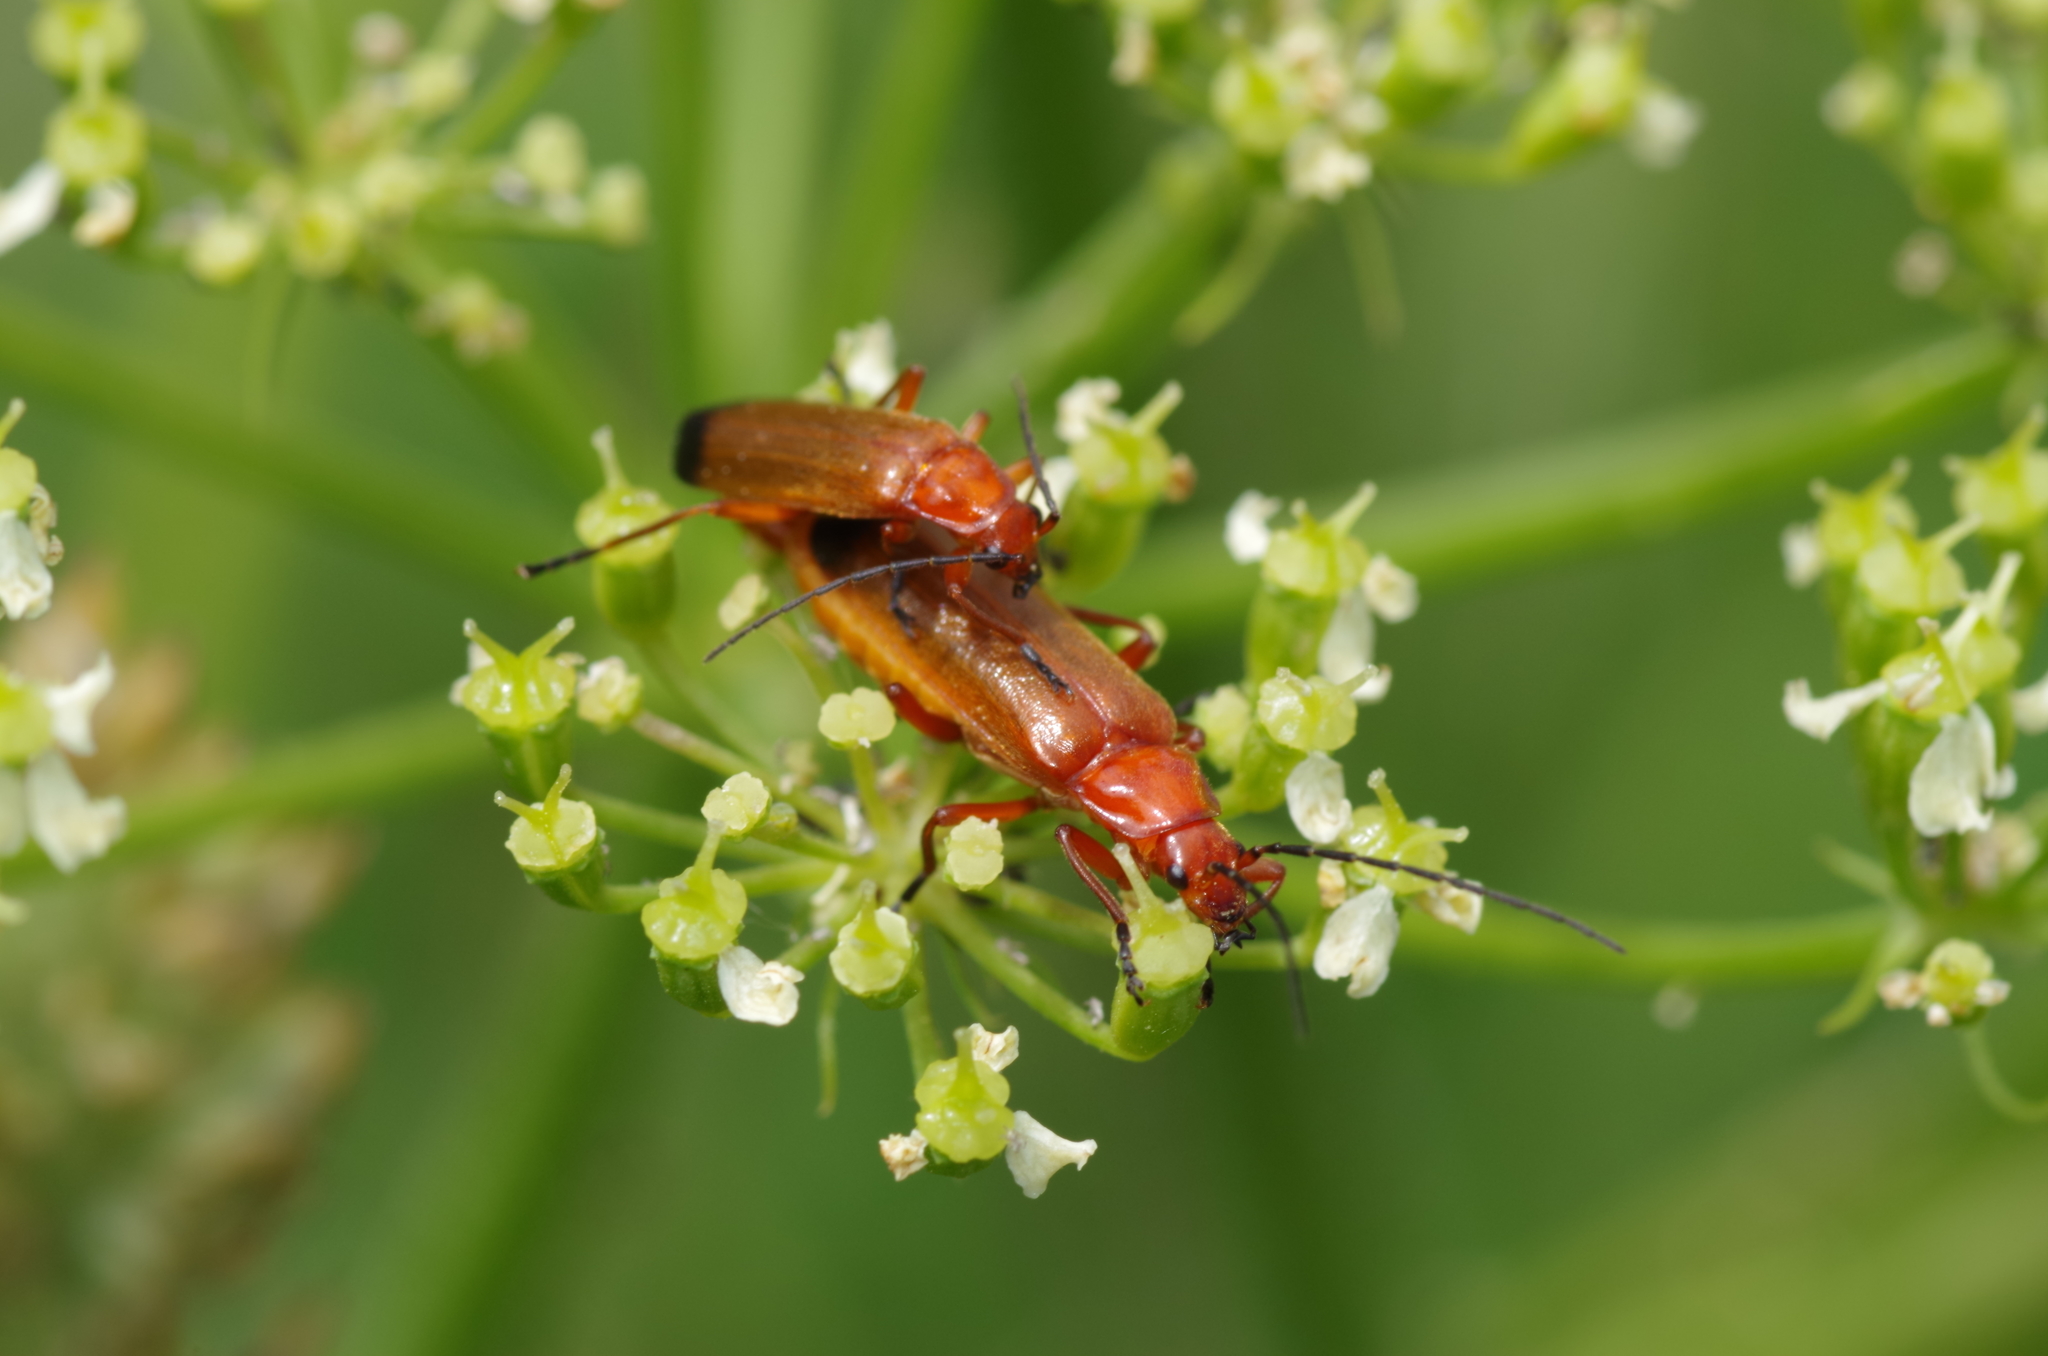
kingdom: Animalia
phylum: Arthropoda
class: Insecta
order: Coleoptera
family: Cantharidae
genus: Rhagonycha
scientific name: Rhagonycha fulva
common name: Common red soldier beetle
